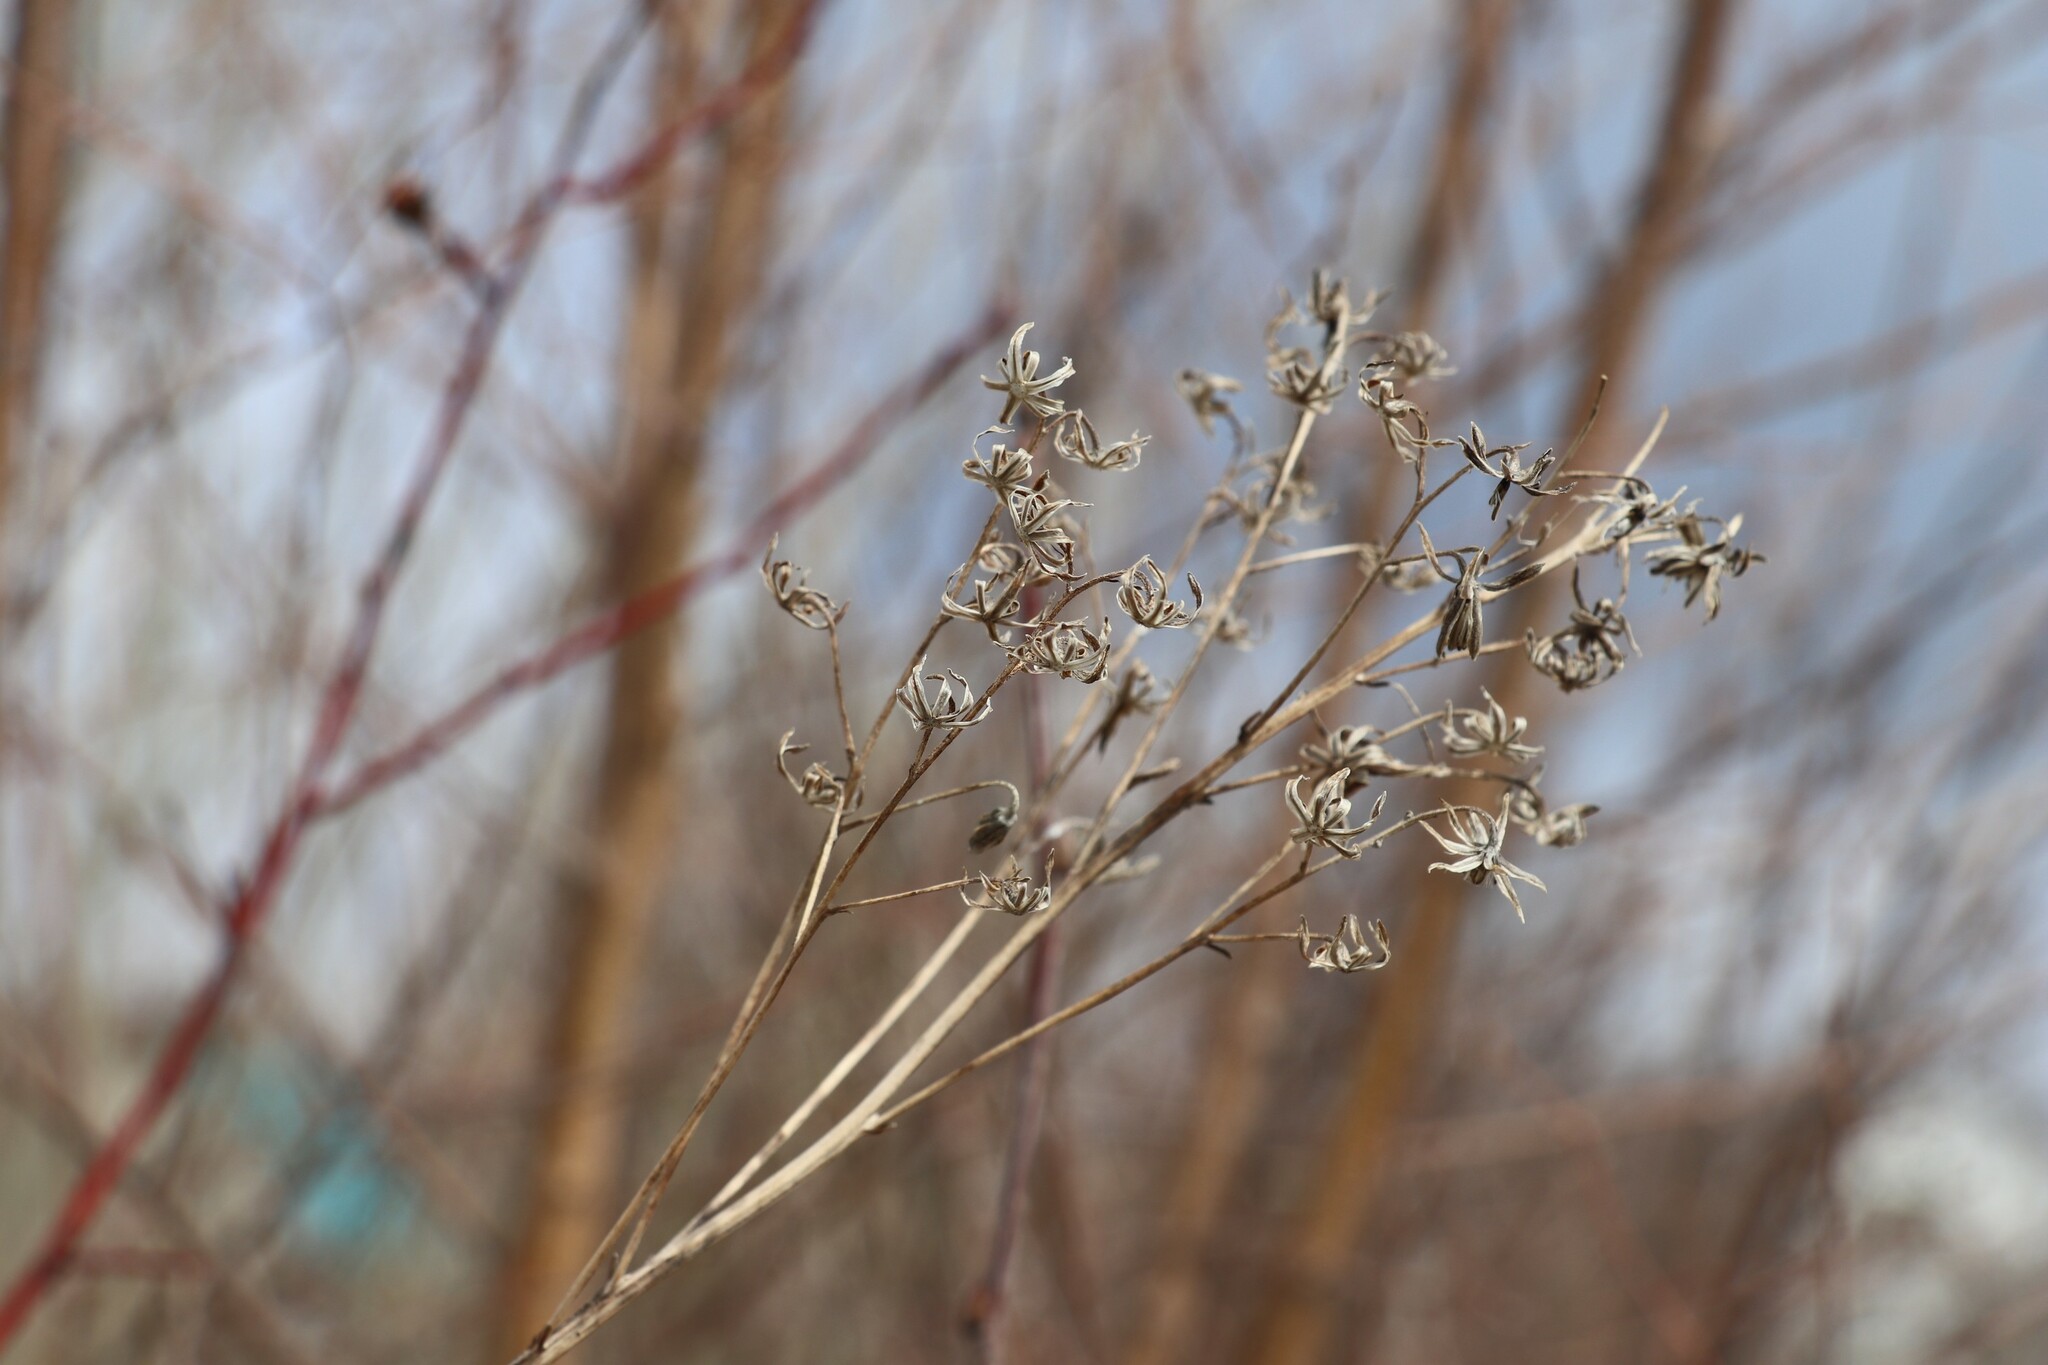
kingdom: Plantae
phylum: Tracheophyta
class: Magnoliopsida
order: Asterales
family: Asteraceae
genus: Parasenecio
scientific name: Parasenecio hastatus
